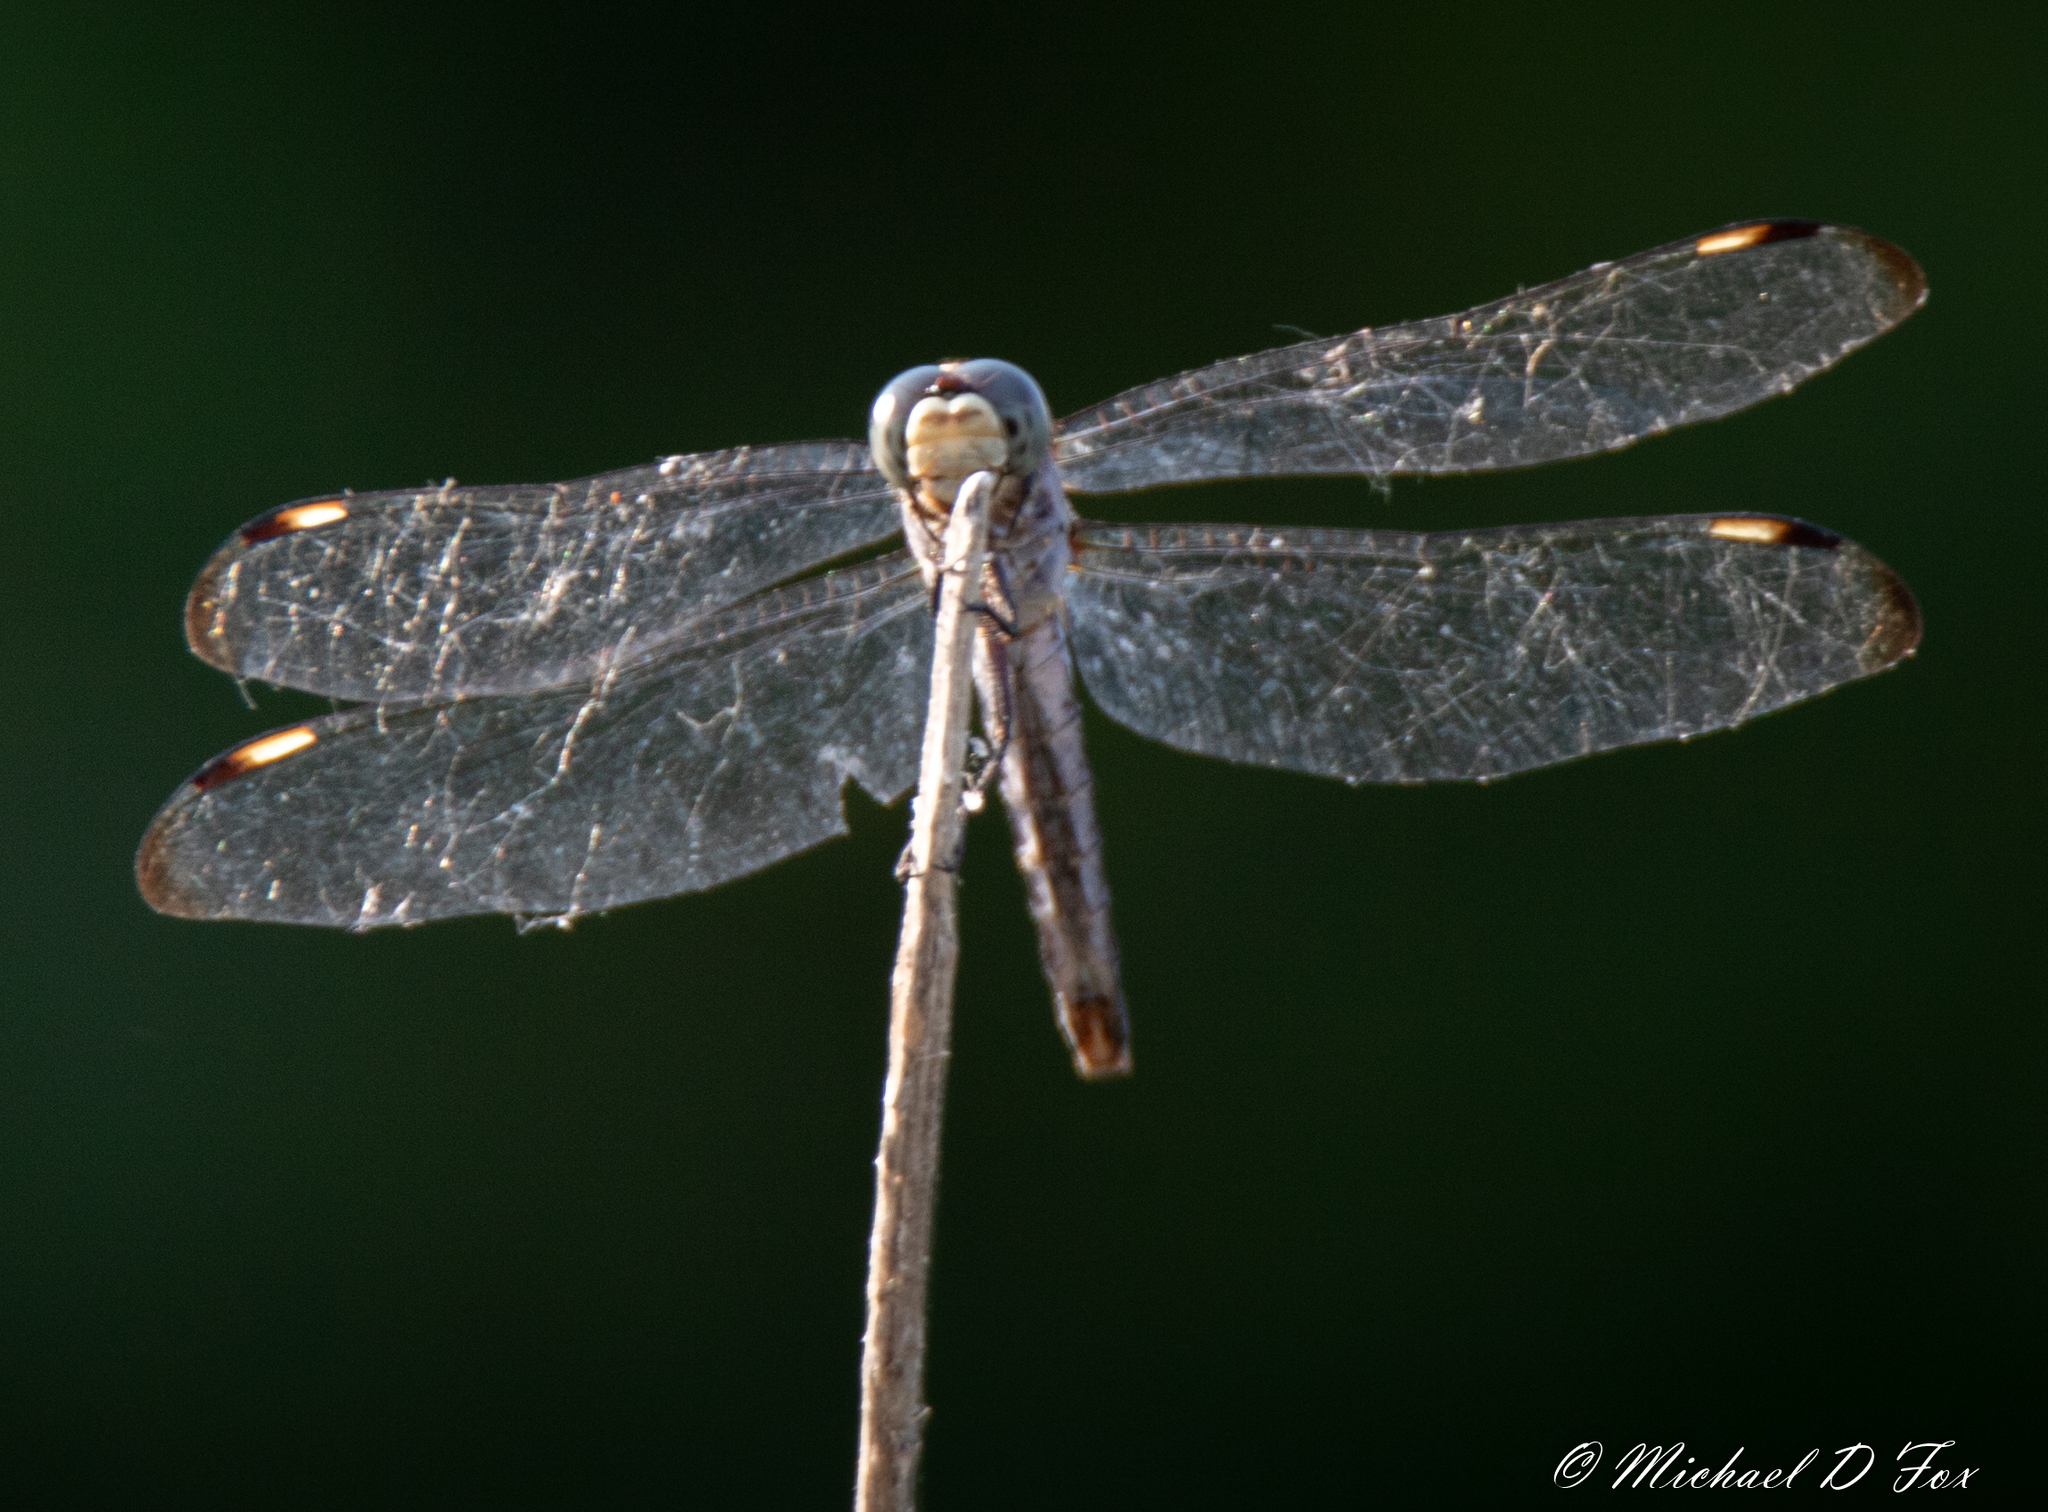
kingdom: Animalia
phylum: Arthropoda
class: Insecta
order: Odonata
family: Libellulidae
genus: Libellula
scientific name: Libellula comanche
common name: Comanche skimmer
